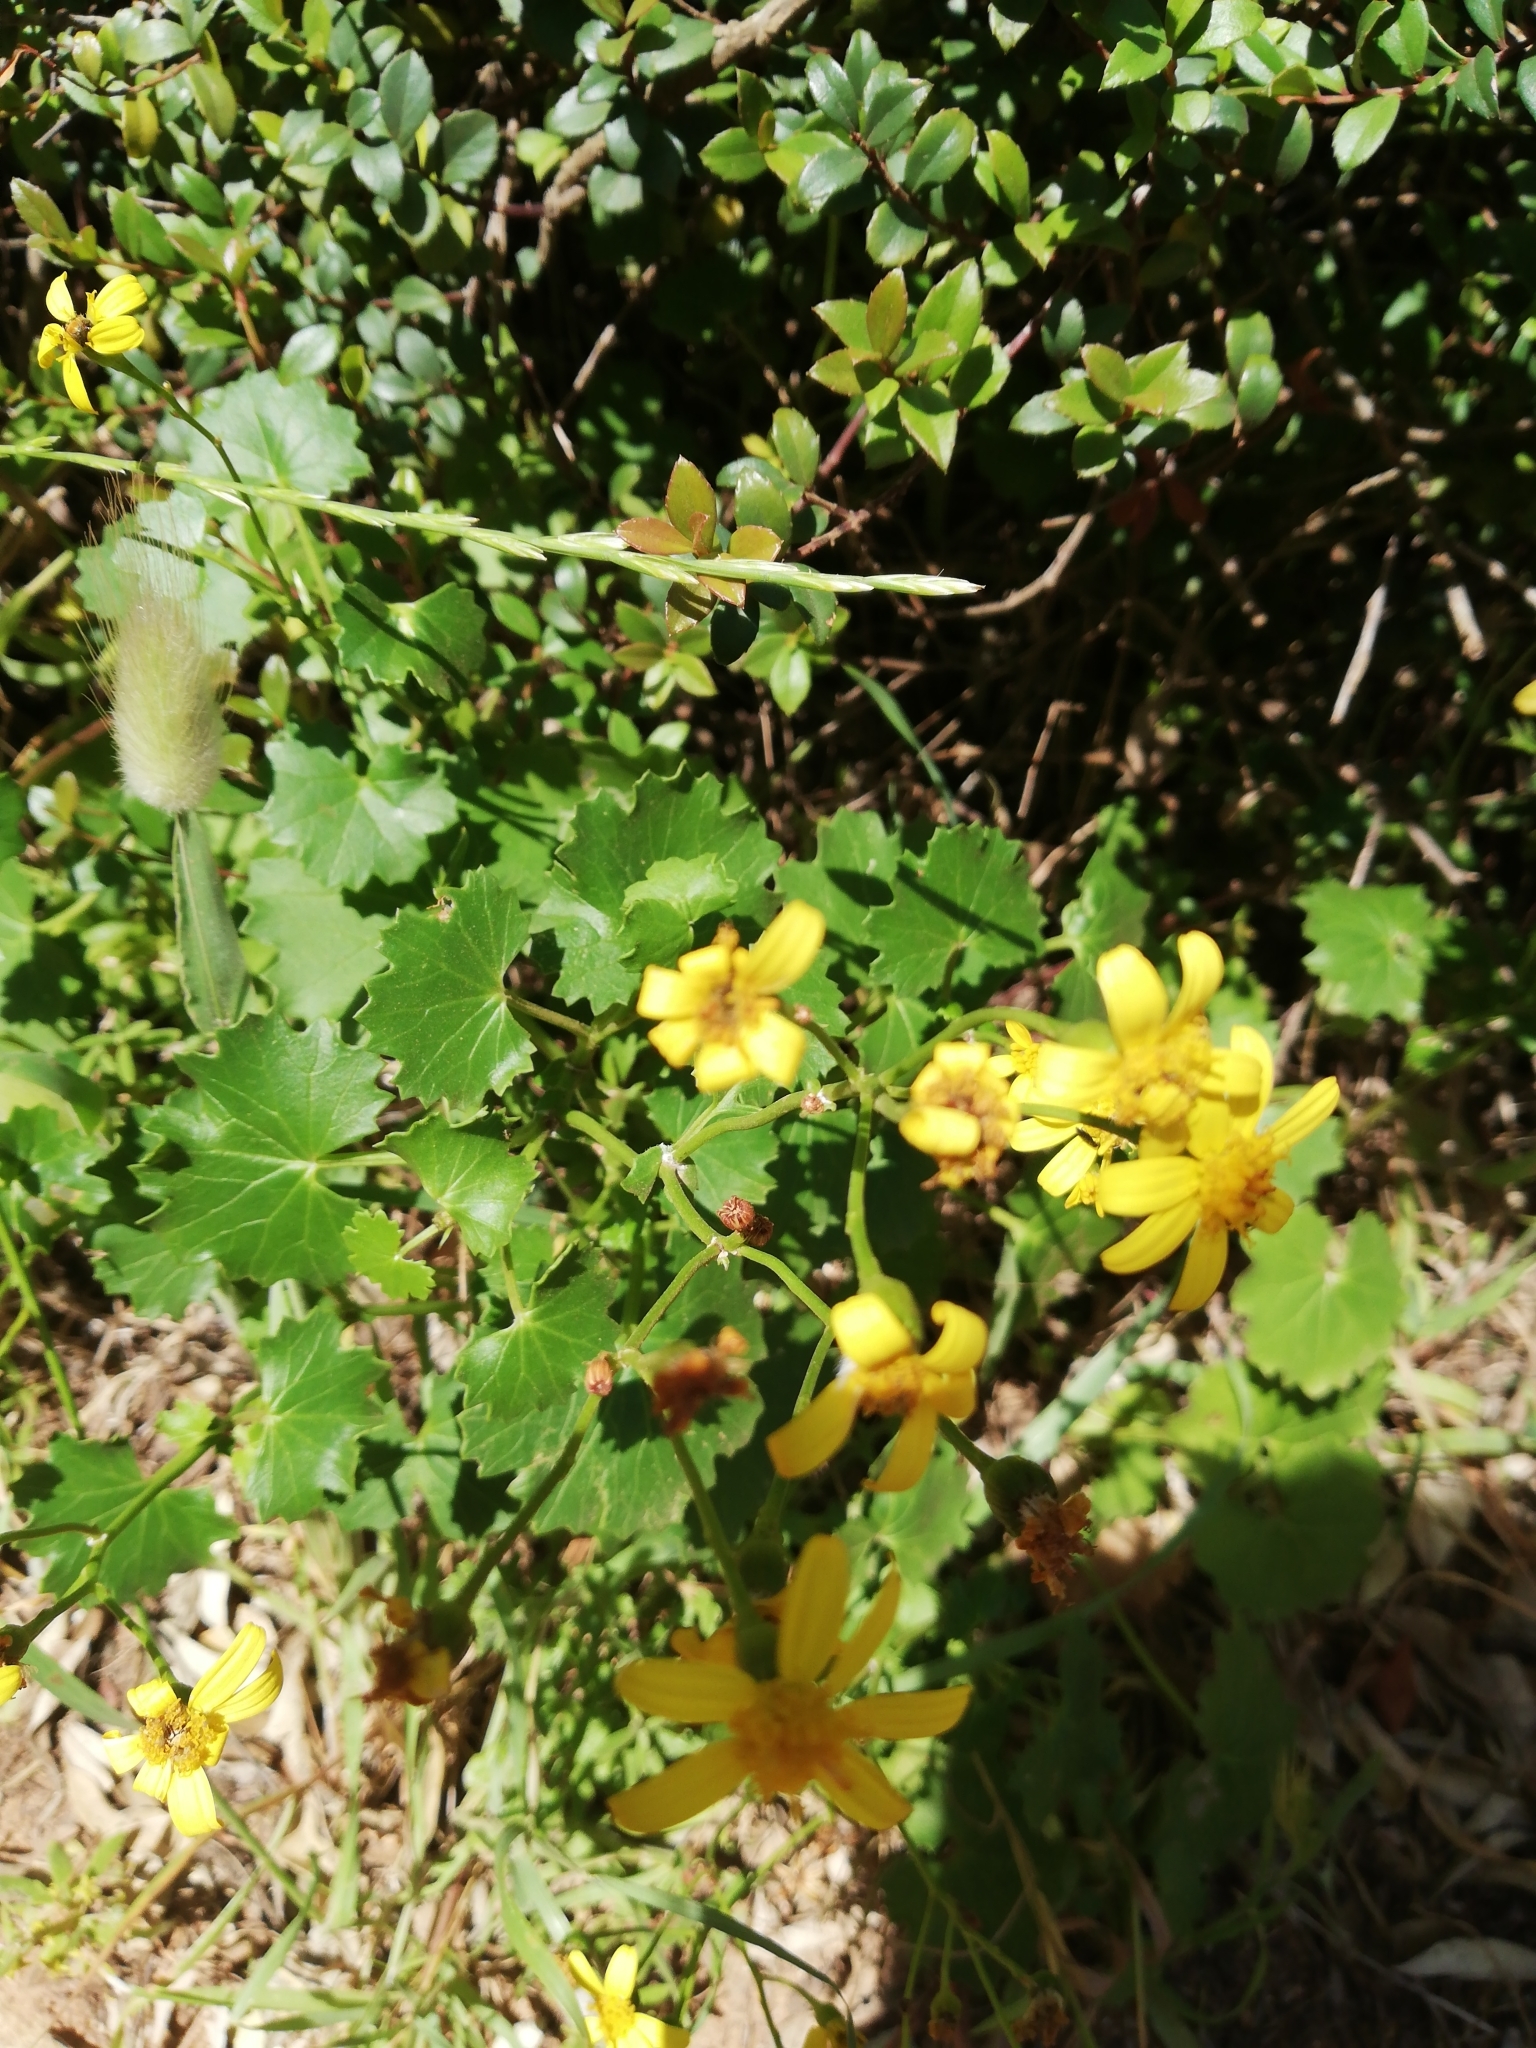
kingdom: Plantae
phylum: Tracheophyta
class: Magnoliopsida
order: Asterales
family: Asteraceae
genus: Cineraria
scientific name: Cineraria geifolia
